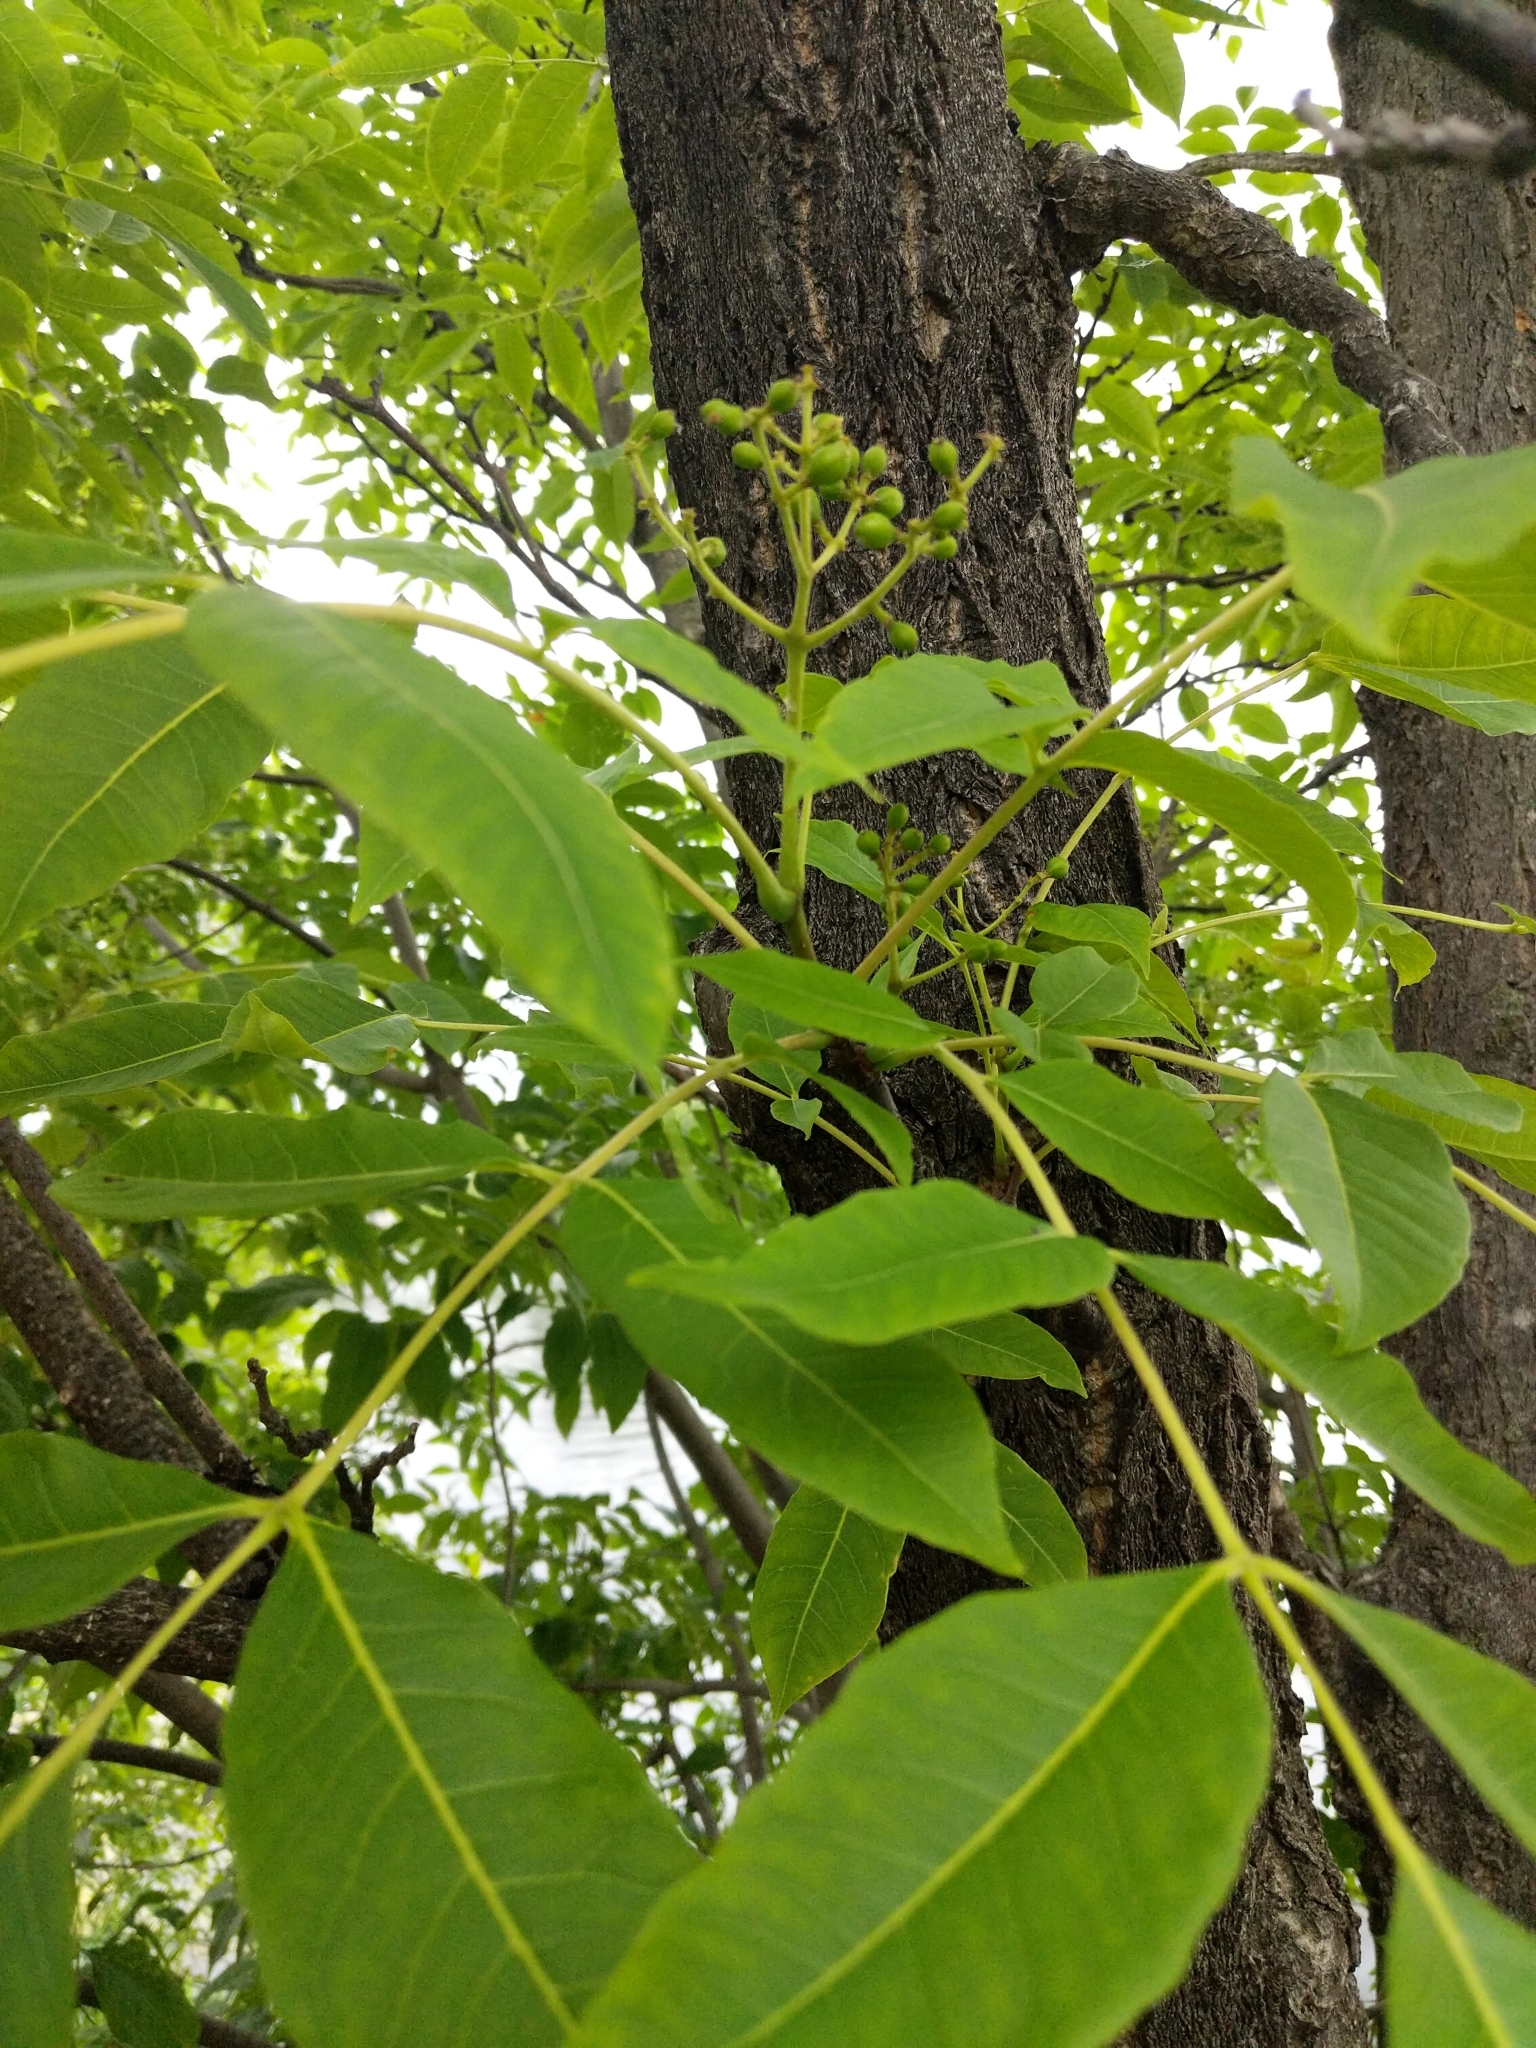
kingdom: Plantae
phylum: Tracheophyta
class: Magnoliopsida
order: Sapindales
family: Rutaceae
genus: Phellodendron
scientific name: Phellodendron amurense
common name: Amur corktree
